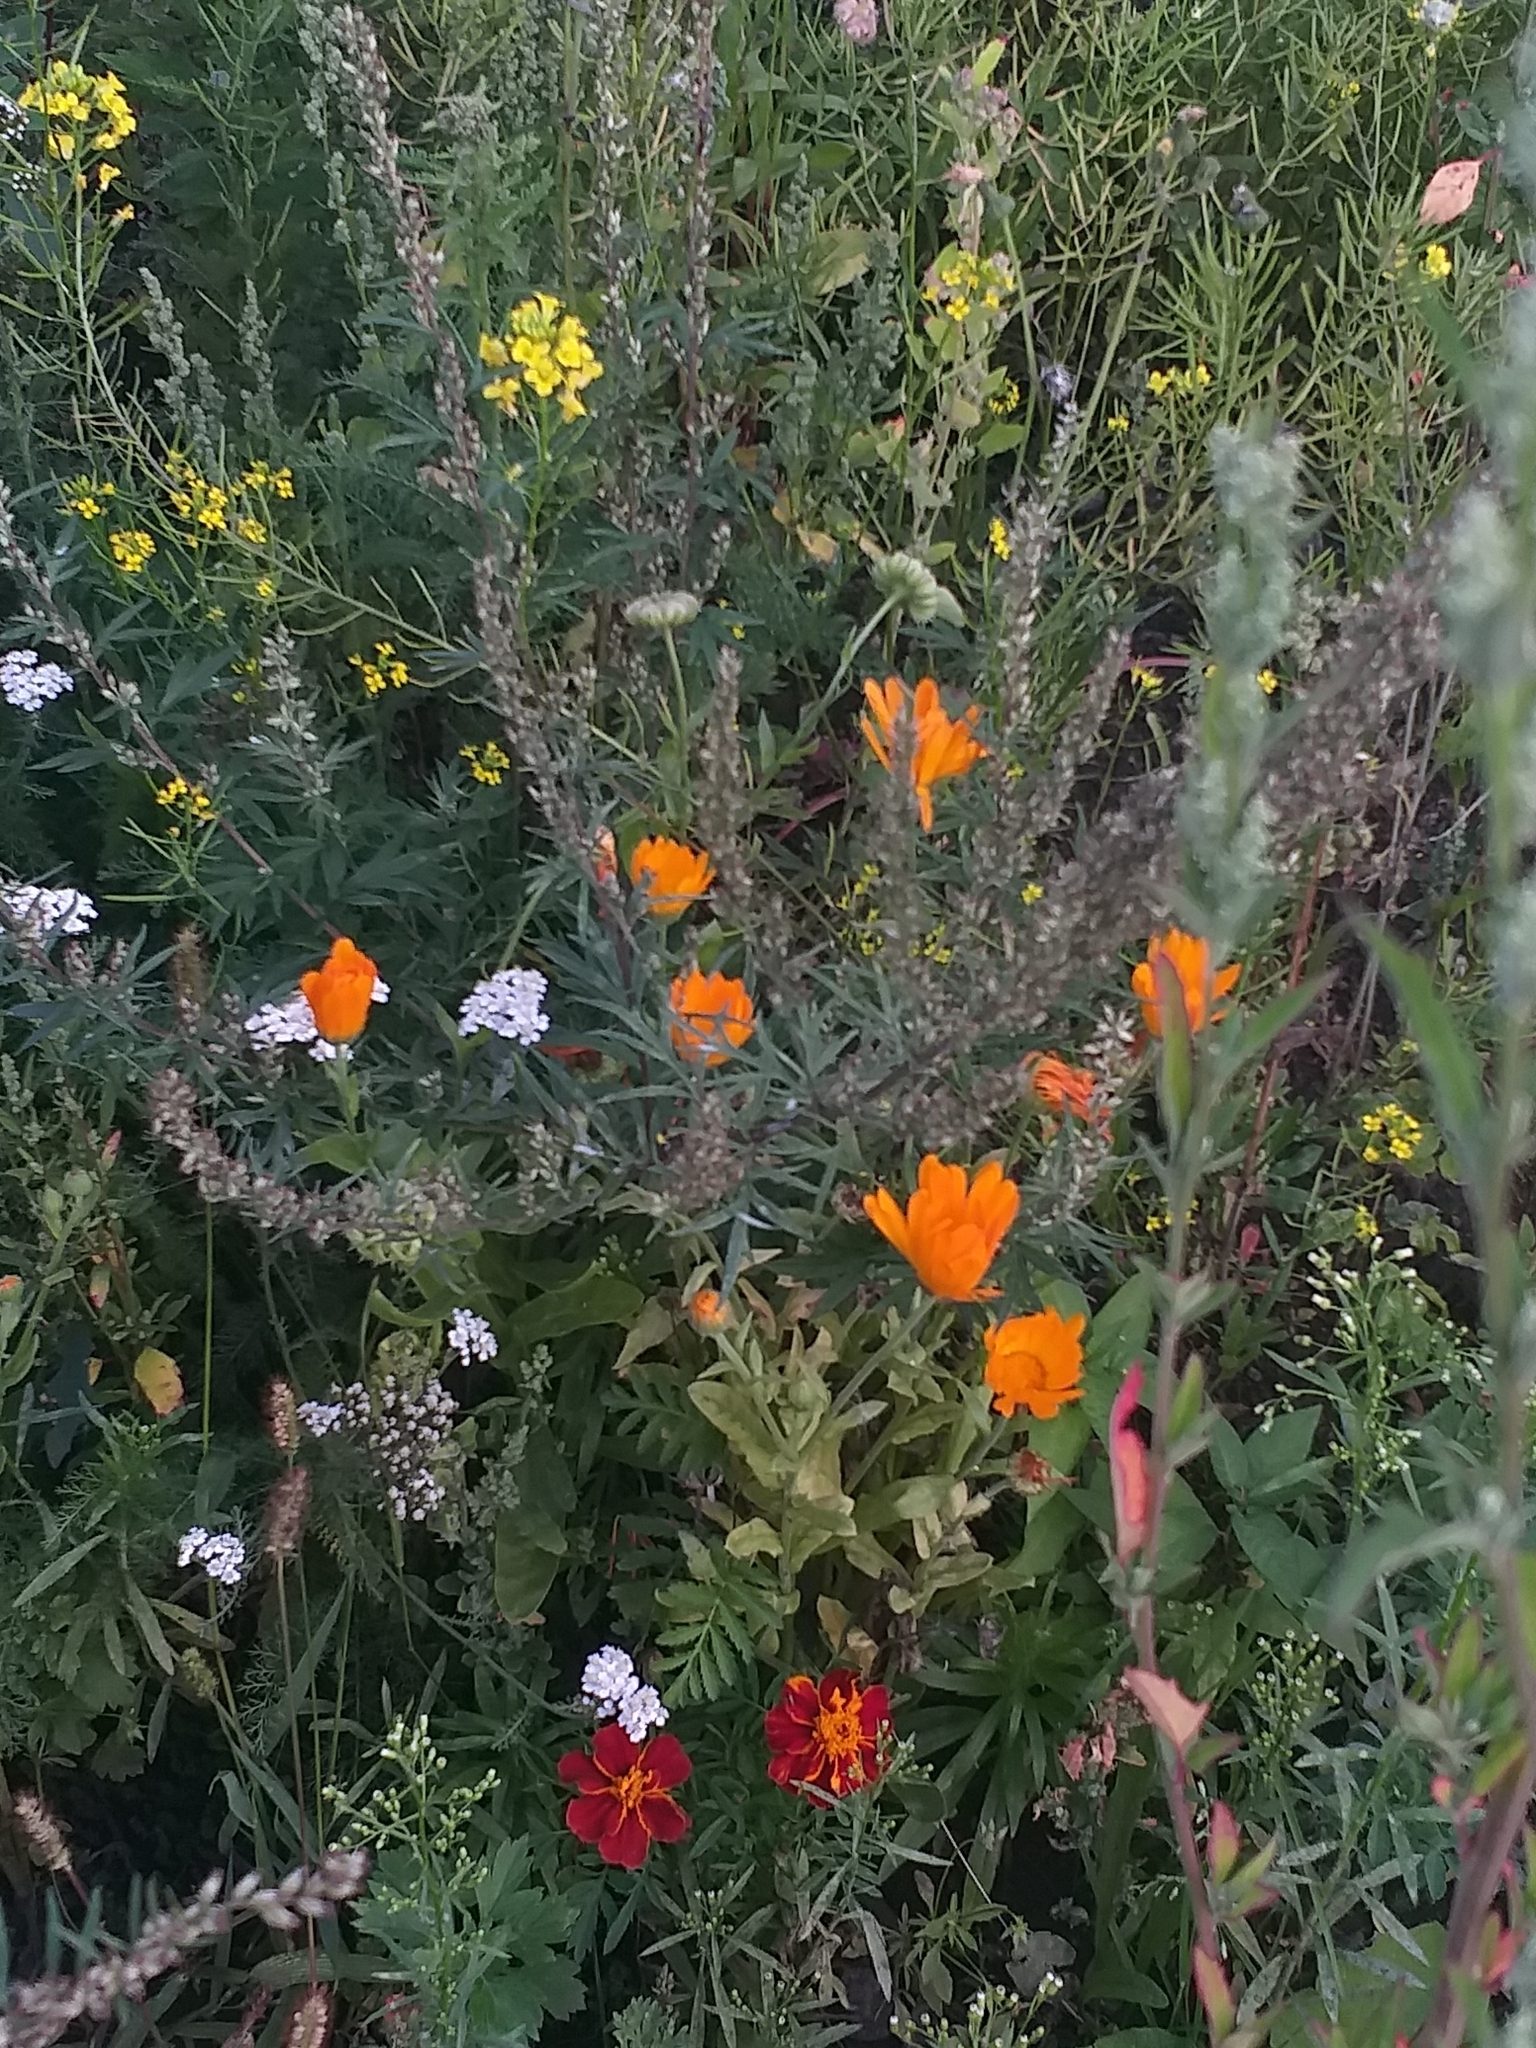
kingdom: Plantae
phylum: Tracheophyta
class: Magnoliopsida
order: Asterales
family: Asteraceae
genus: Calendula
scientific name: Calendula officinalis
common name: Pot marigold
